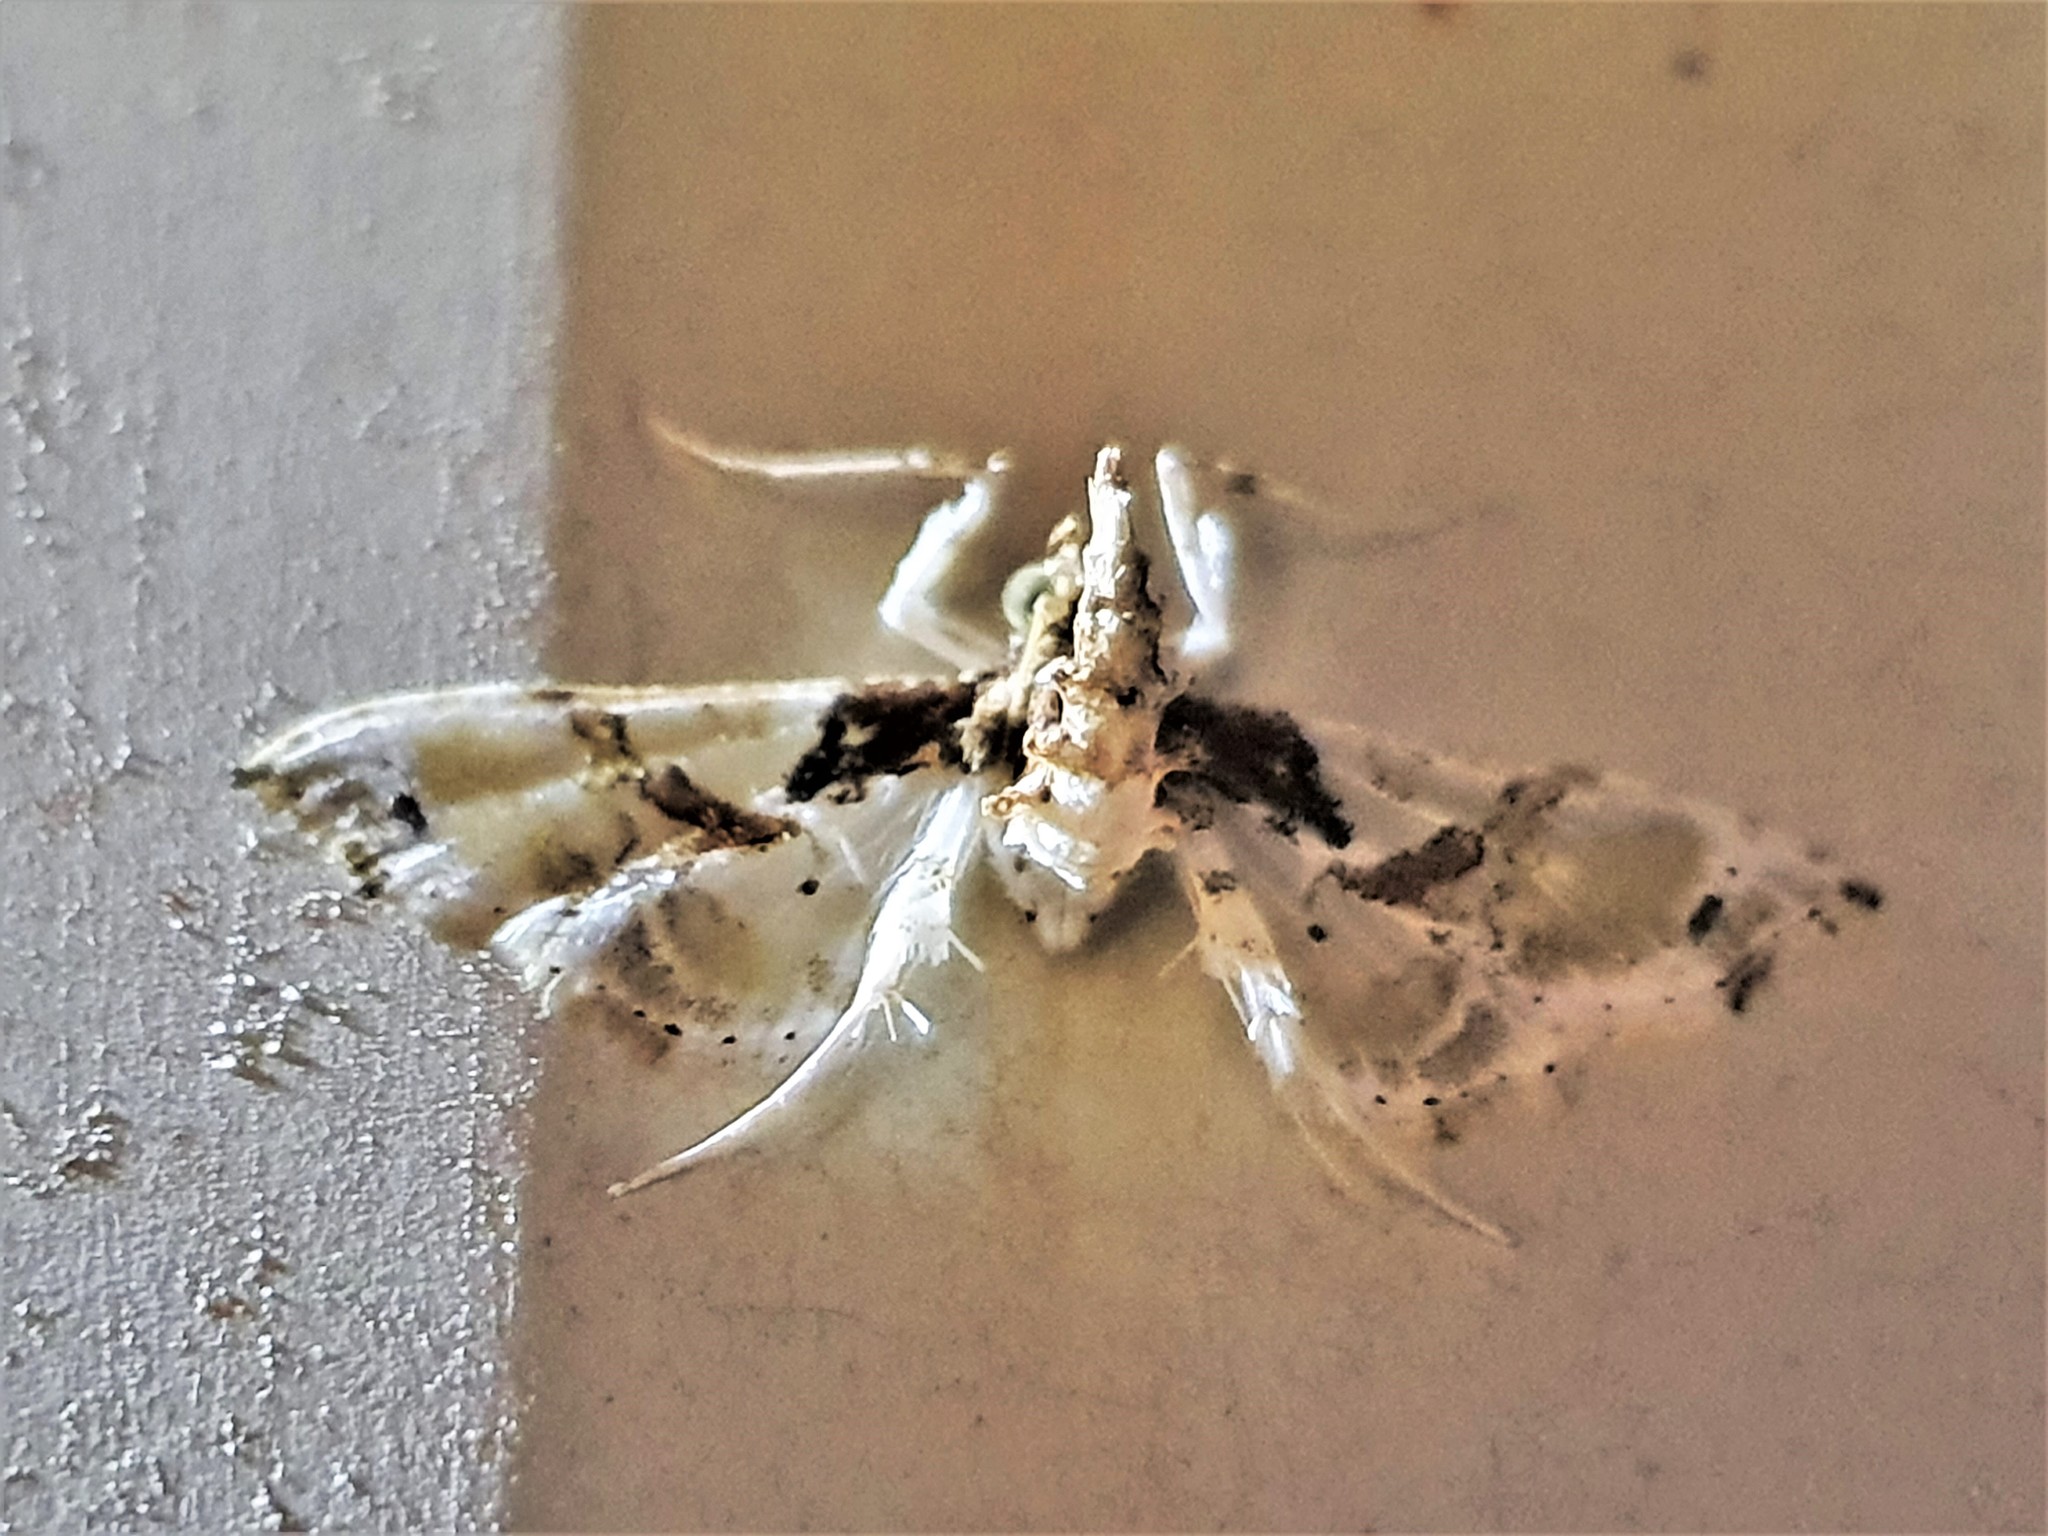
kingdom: Animalia
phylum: Arthropoda
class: Insecta
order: Lepidoptera
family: Crambidae
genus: Neoleucinodes
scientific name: Neoleucinodes elegantalis
